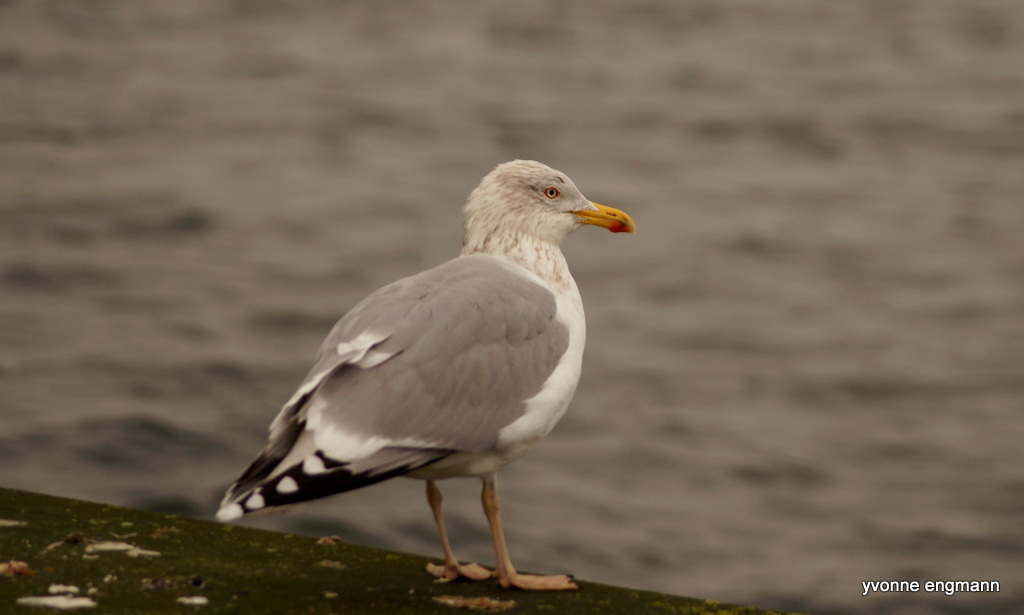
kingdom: Animalia
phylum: Chordata
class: Aves
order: Charadriiformes
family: Laridae
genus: Larus
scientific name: Larus argentatus
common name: Herring gull
